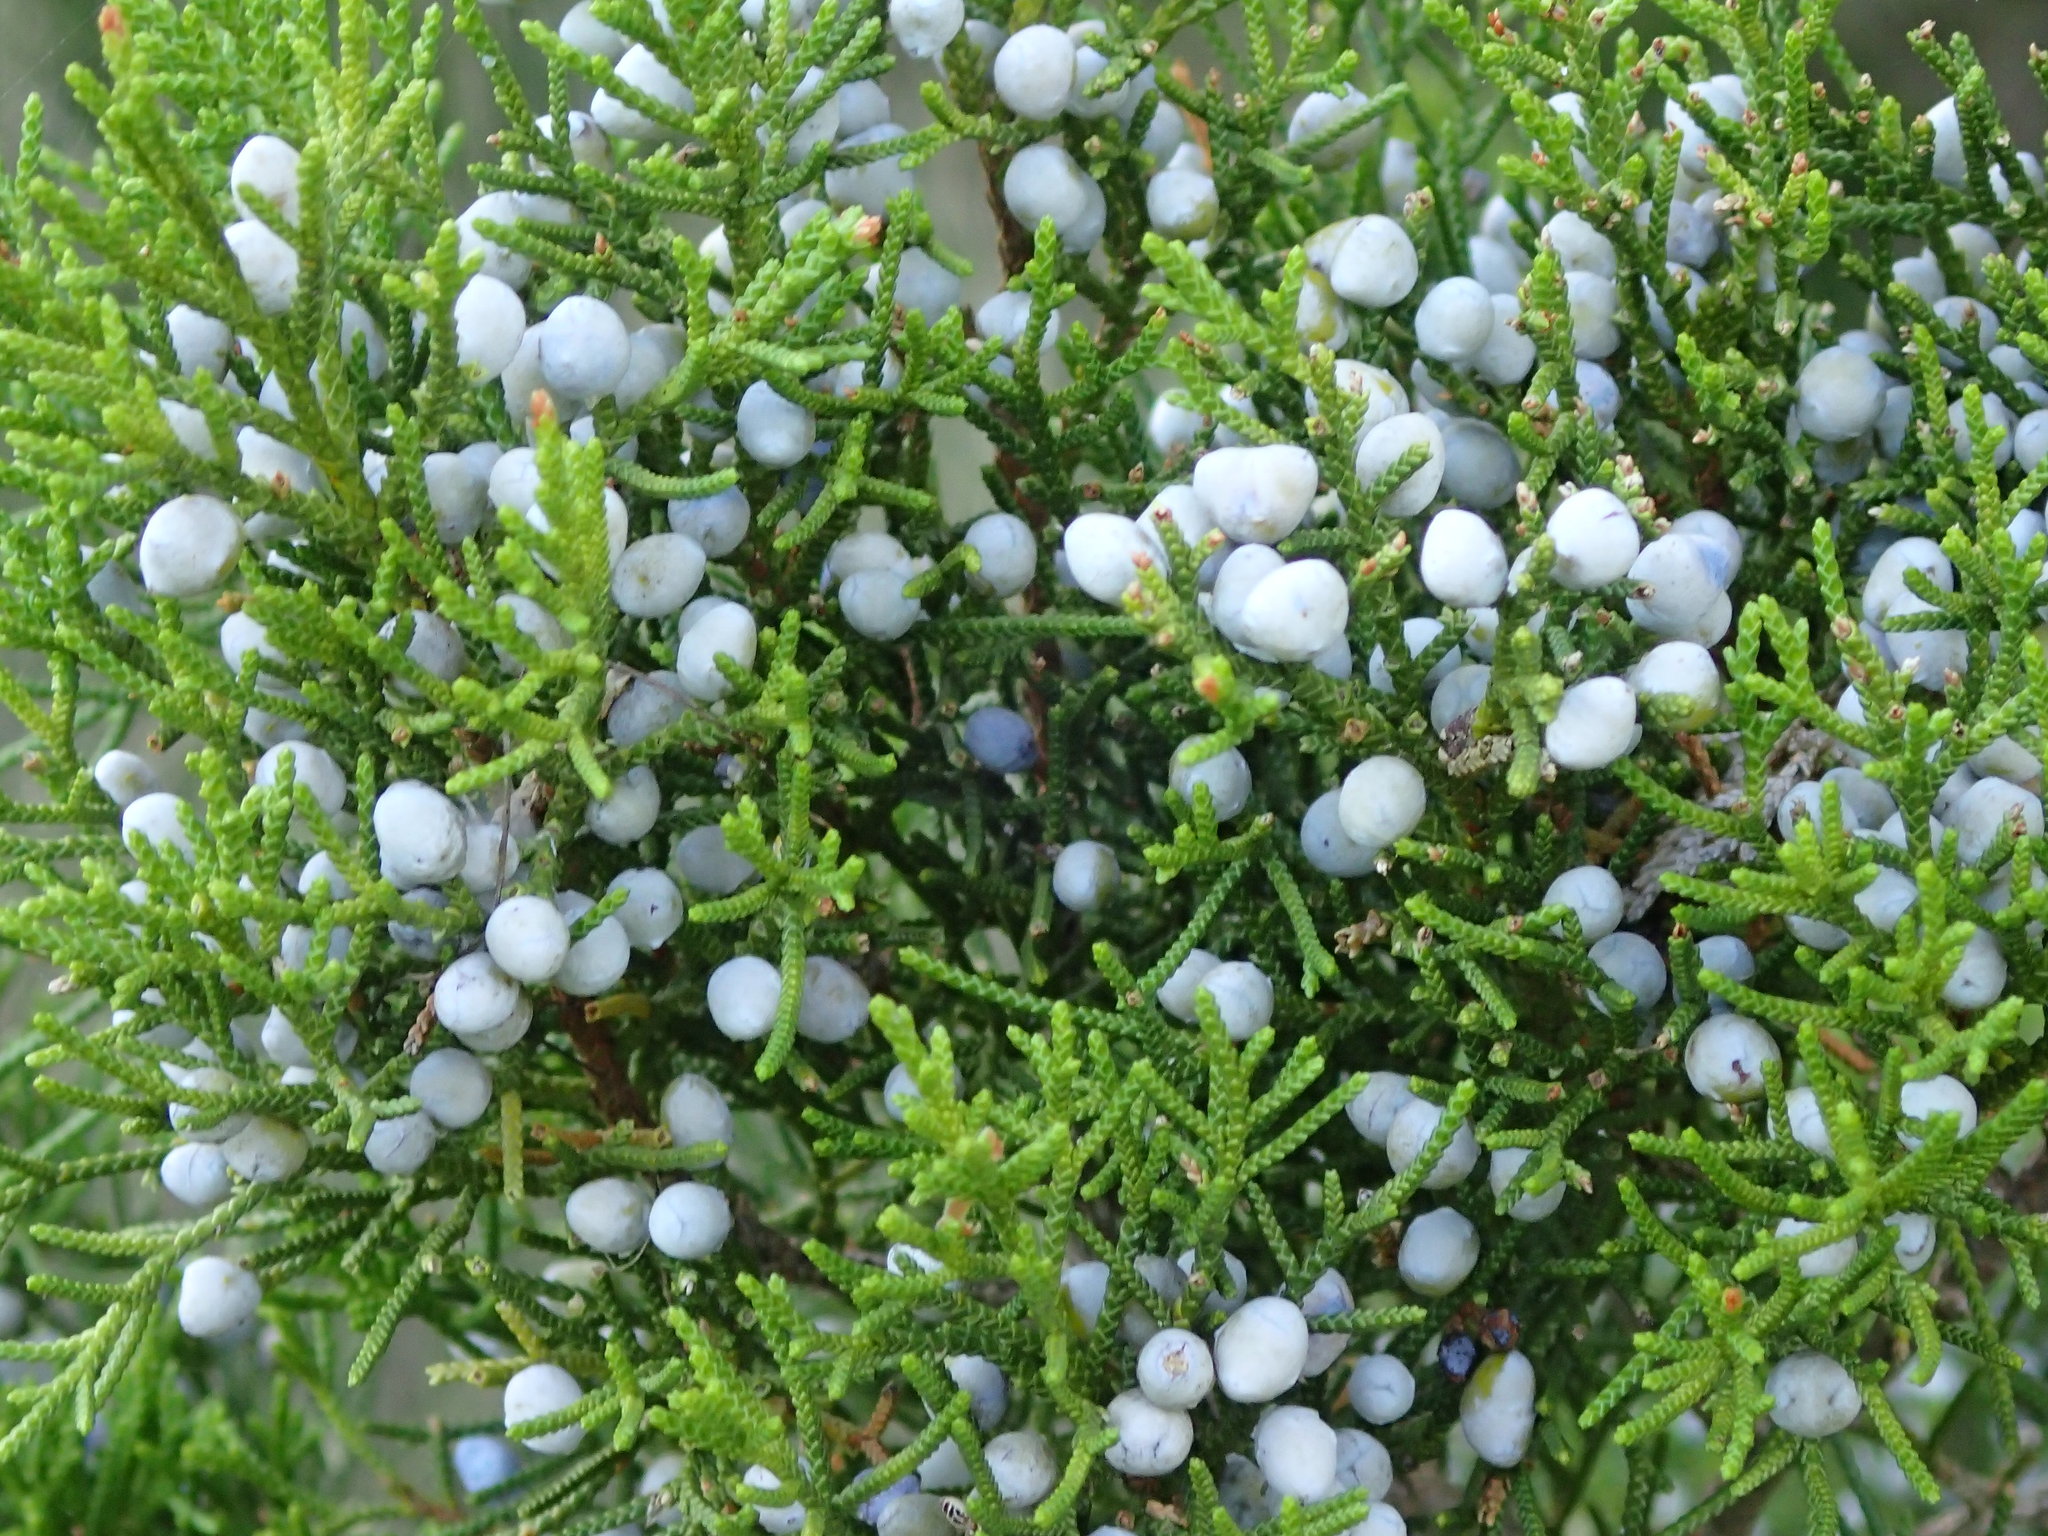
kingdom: Plantae
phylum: Tracheophyta
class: Pinopsida
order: Pinales
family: Cupressaceae
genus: Juniperus
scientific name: Juniperus virginiana
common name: Red juniper
